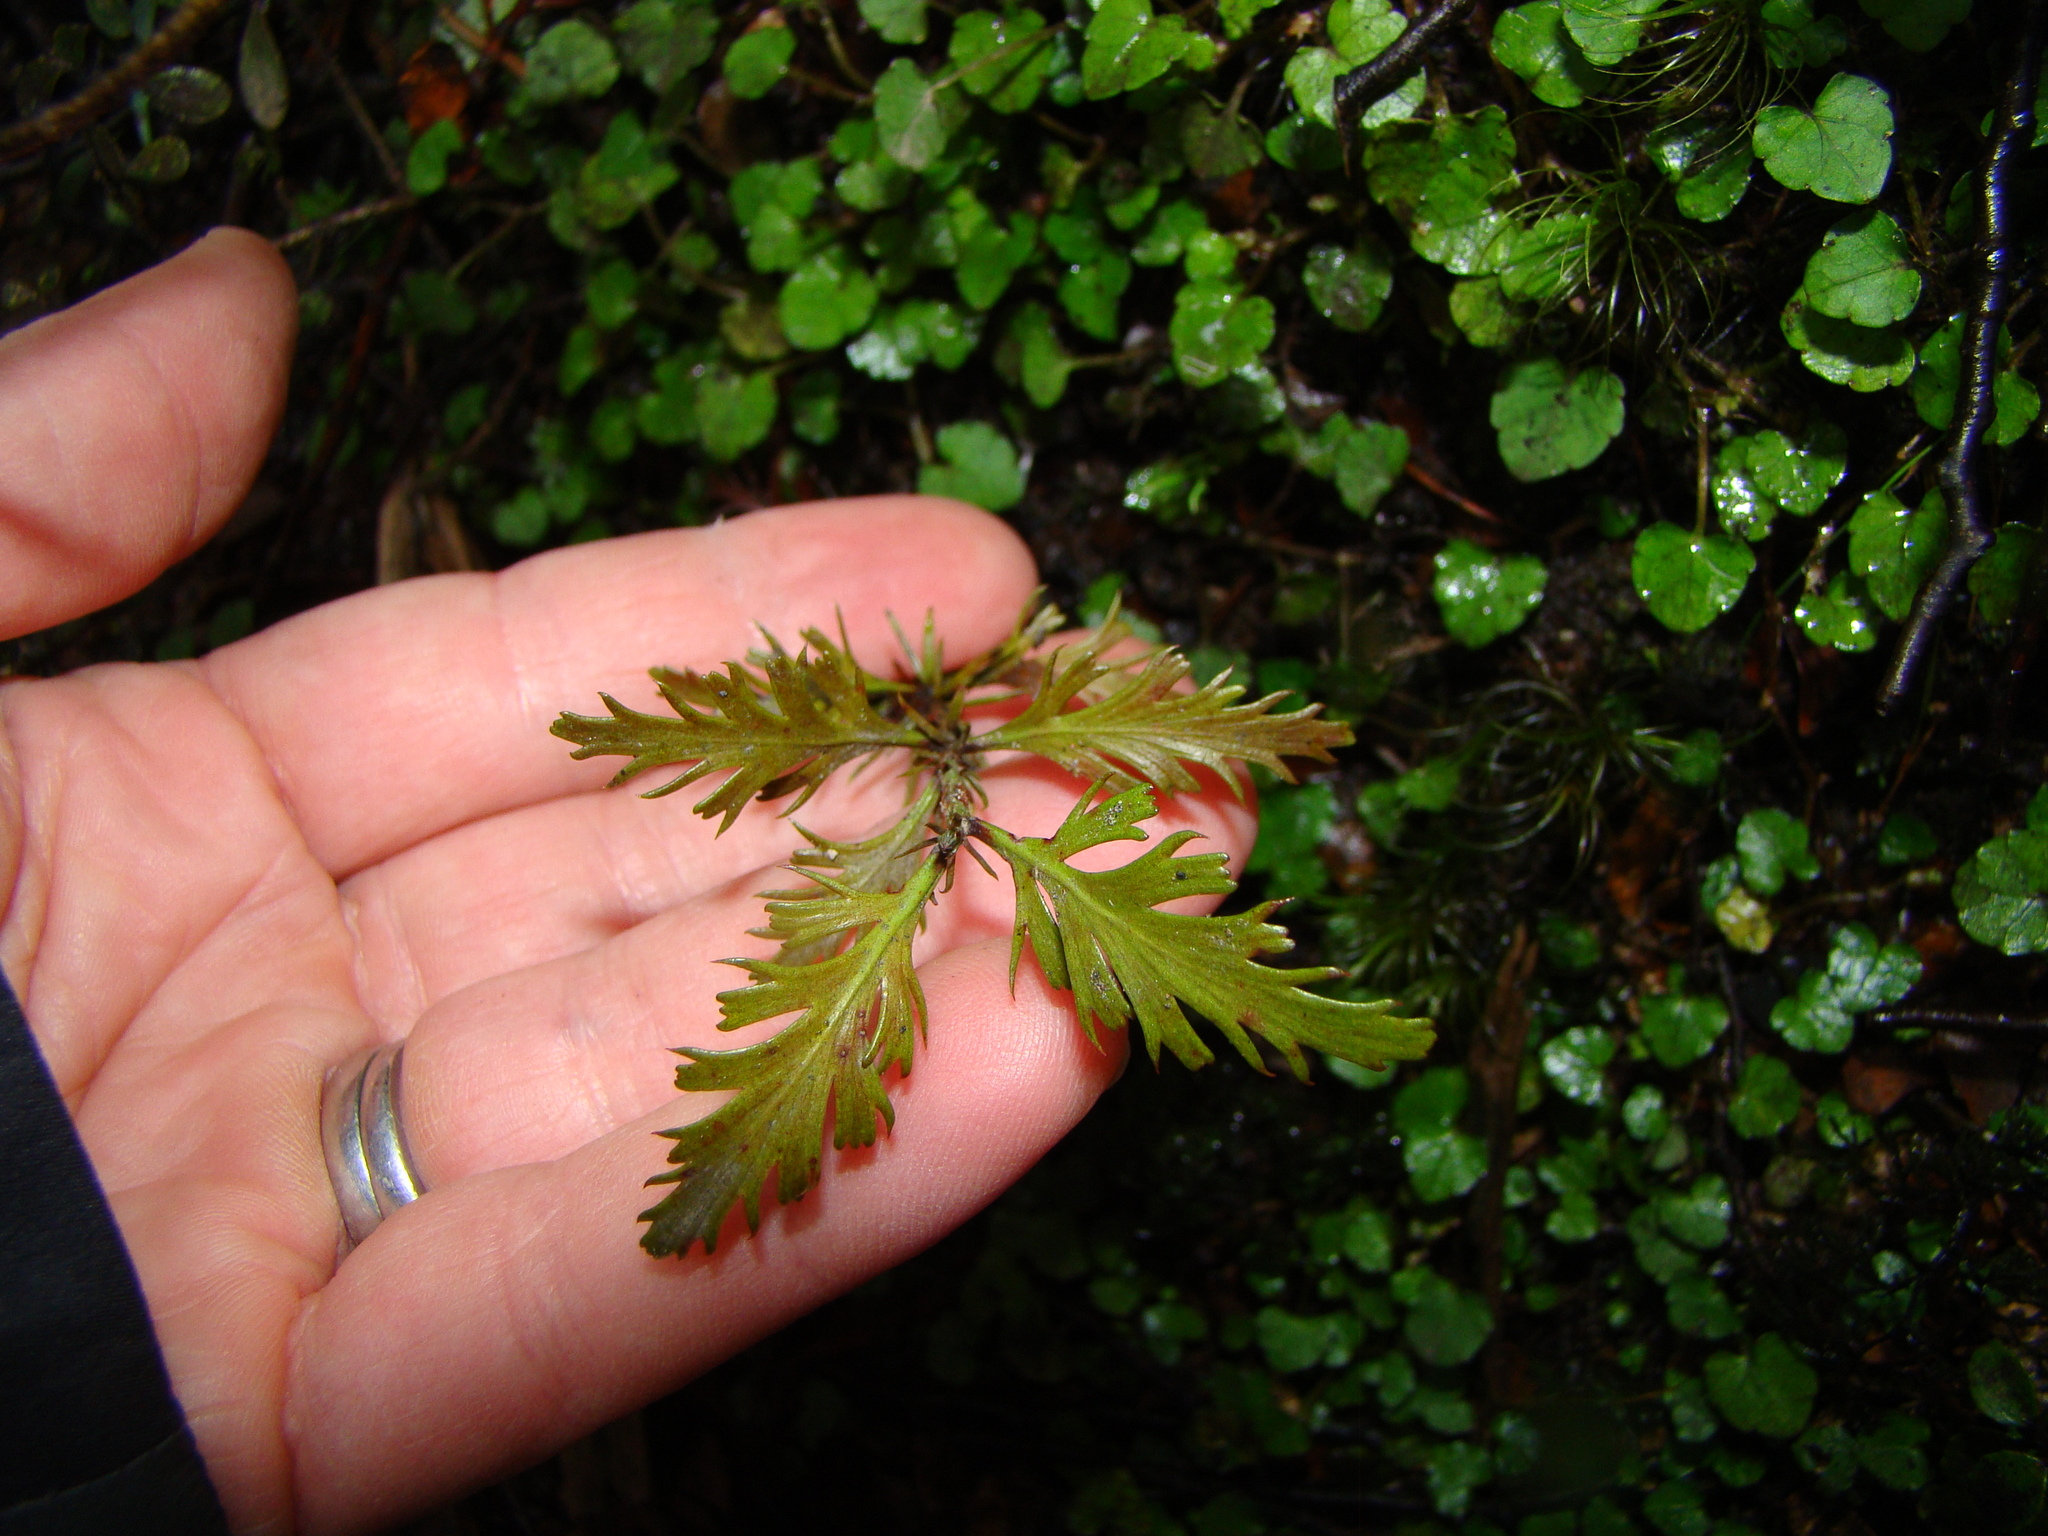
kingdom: Plantae
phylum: Tracheophyta
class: Pinopsida
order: Pinales
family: Phyllocladaceae
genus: Phyllocladus
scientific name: Phyllocladus trichomanoides
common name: Celery pine
